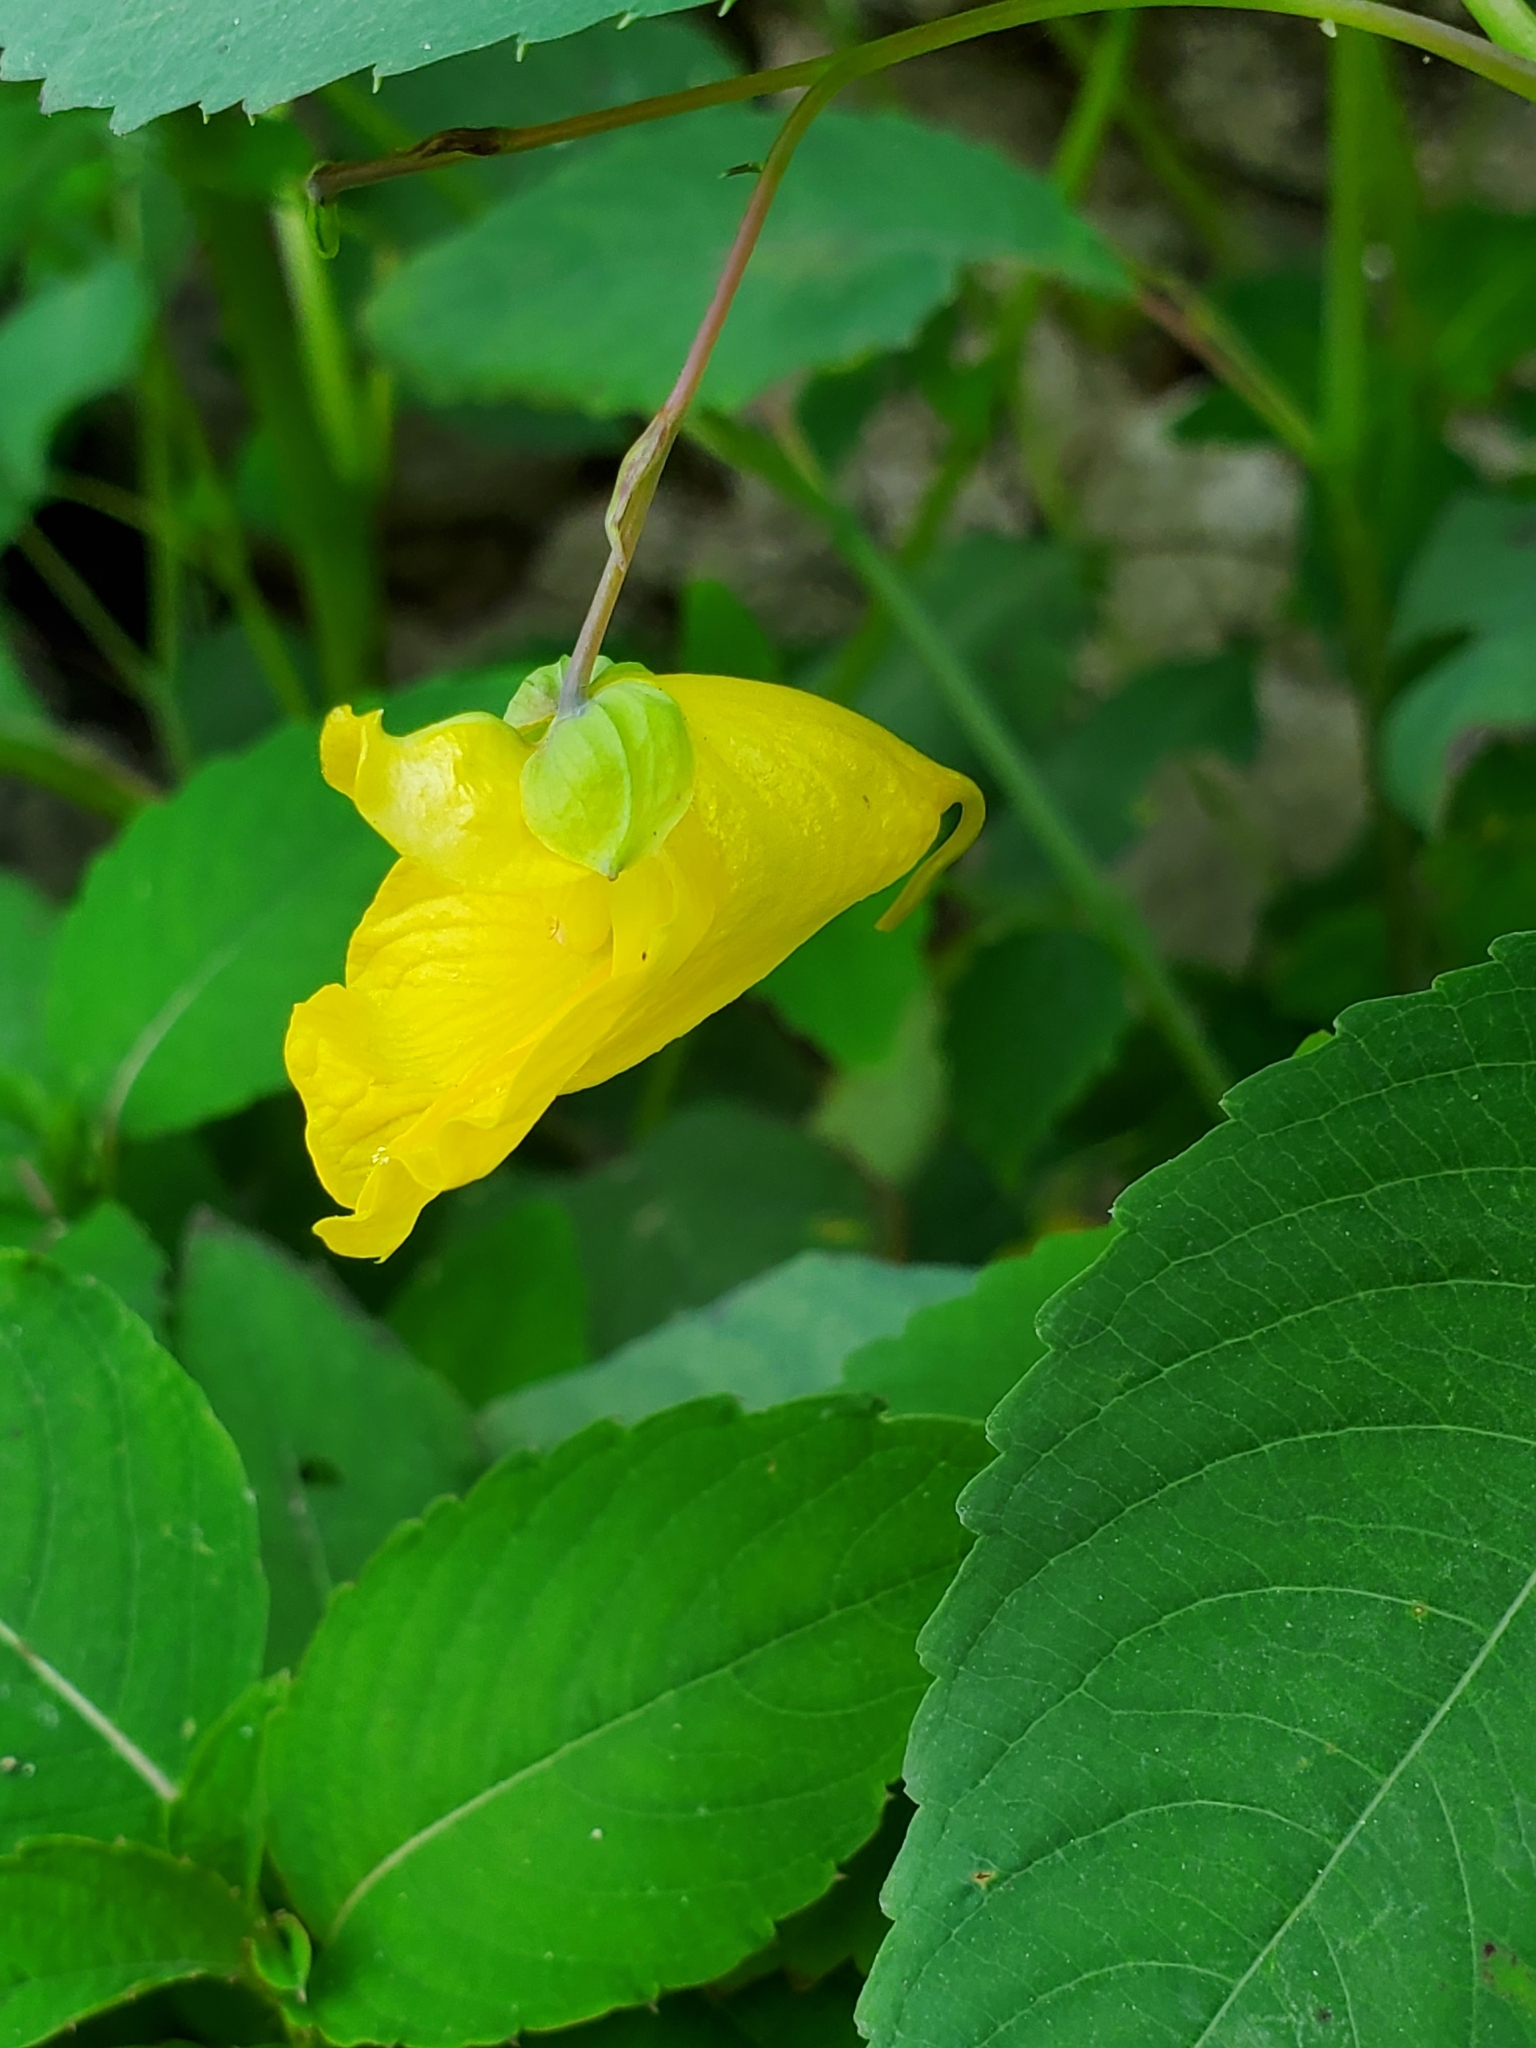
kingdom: Plantae
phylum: Tracheophyta
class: Magnoliopsida
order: Ericales
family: Balsaminaceae
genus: Impatiens
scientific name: Impatiens pallida
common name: Pale snapweed
